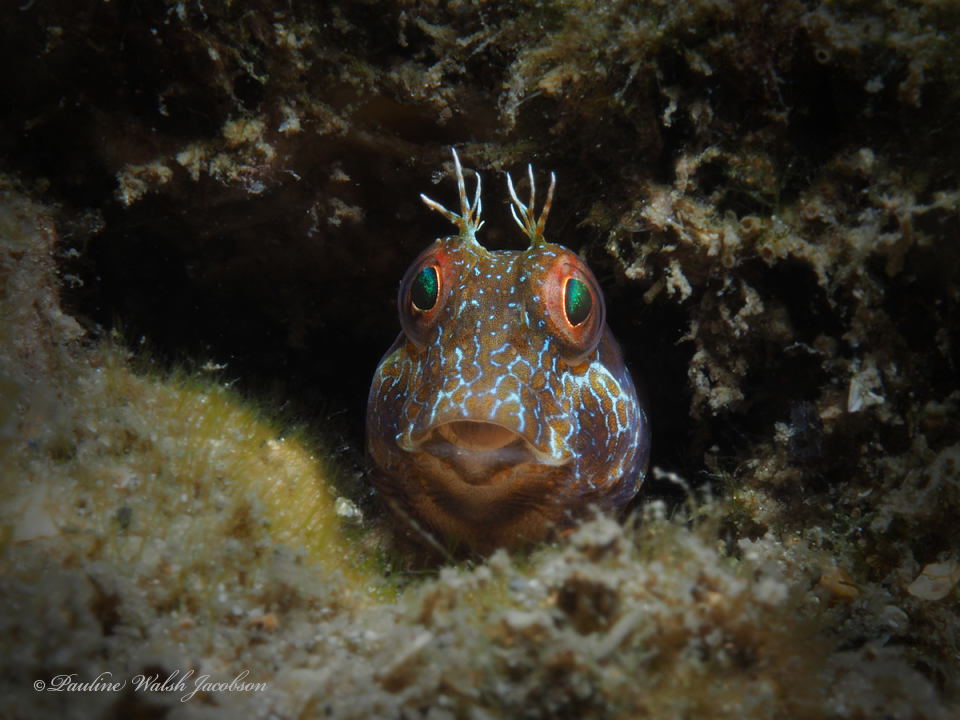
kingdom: Animalia
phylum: Chordata
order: Perciformes
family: Blenniidae
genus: Parablennius
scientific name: Parablennius marmoreus
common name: Seaweed blenny
